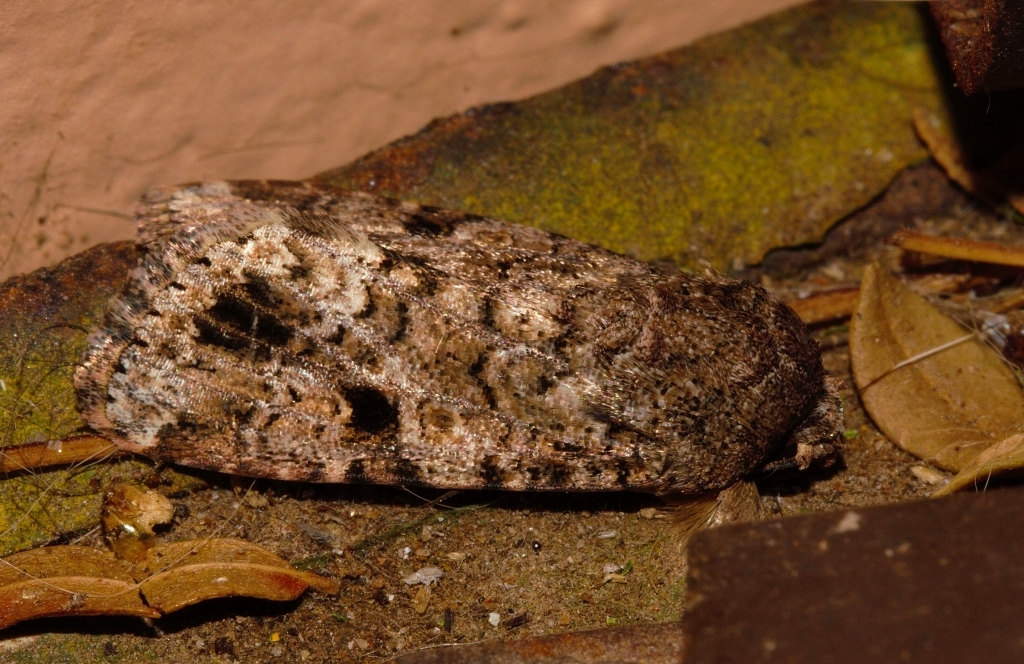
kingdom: Animalia
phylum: Arthropoda
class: Insecta
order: Lepidoptera
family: Noctuidae
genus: Spodoptera
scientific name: Spodoptera mauritia
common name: Lawn armyworm
